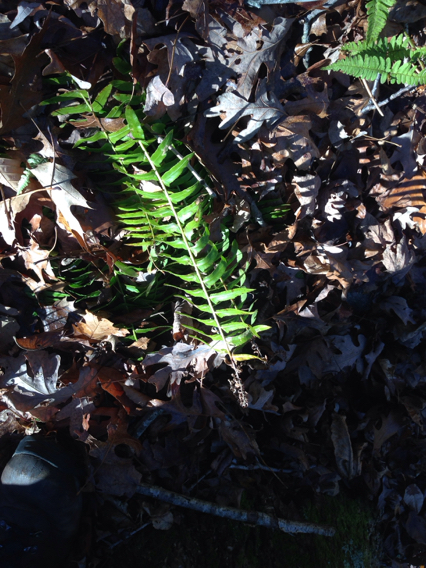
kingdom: Plantae
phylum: Tracheophyta
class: Polypodiopsida
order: Polypodiales
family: Dryopteridaceae
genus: Polystichum
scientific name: Polystichum acrostichoides
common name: Christmas fern
